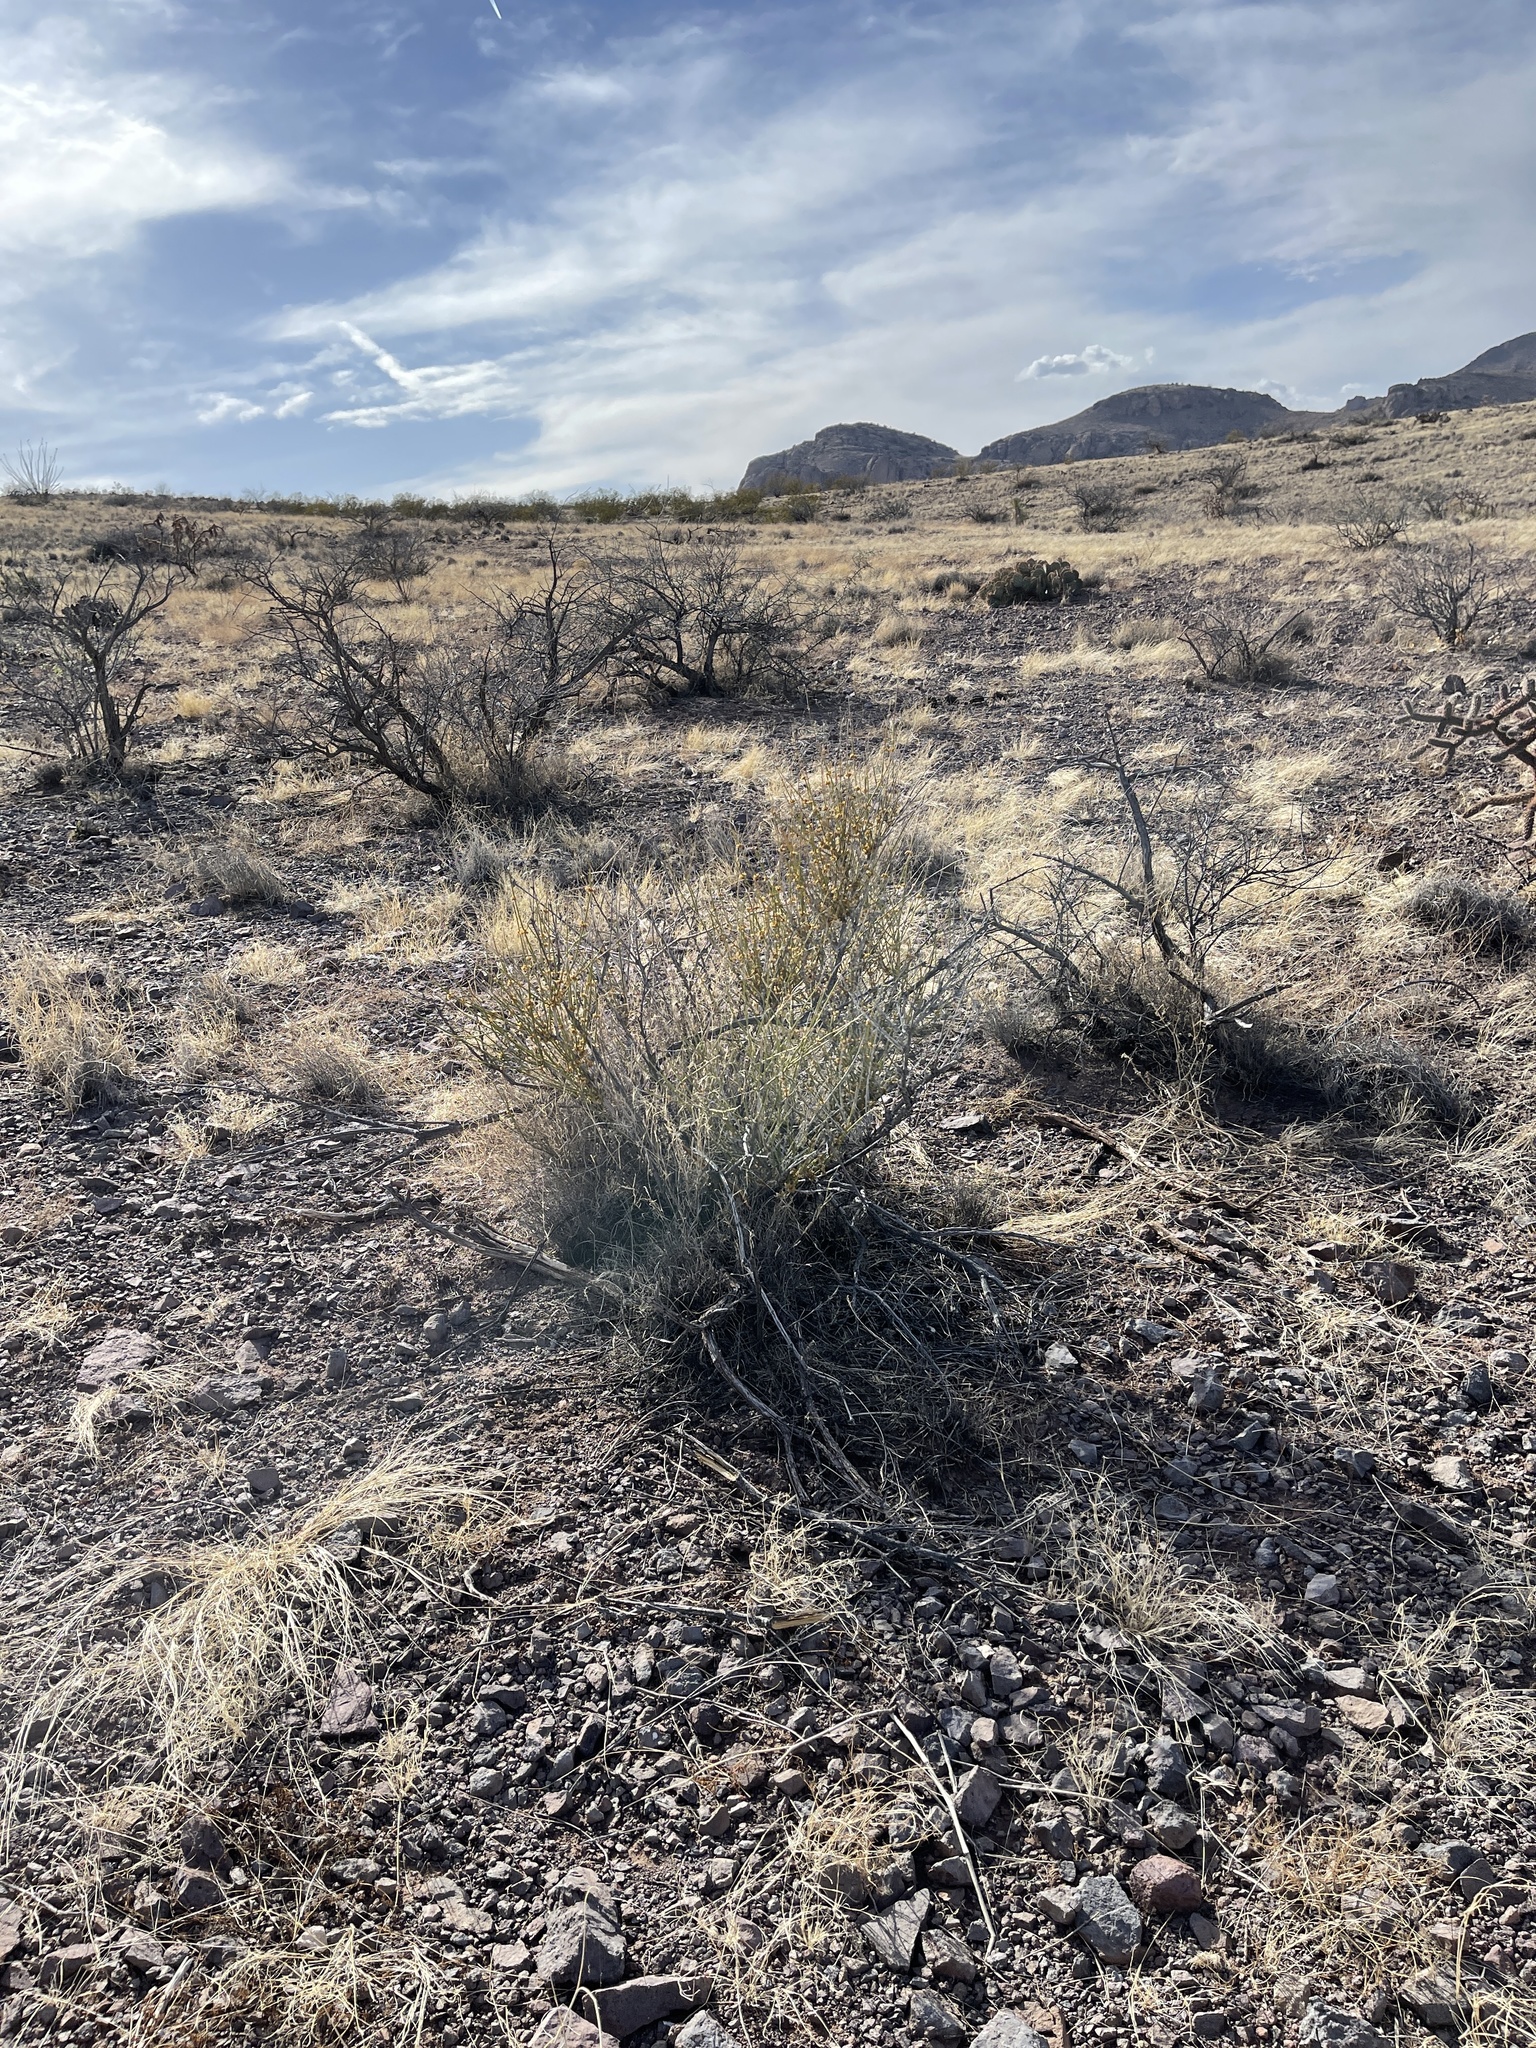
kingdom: Plantae
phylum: Tracheophyta
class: Gnetopsida
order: Ephedrales
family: Ephedraceae
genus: Ephedra
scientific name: Ephedra trifurca
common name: Mexican-tea
